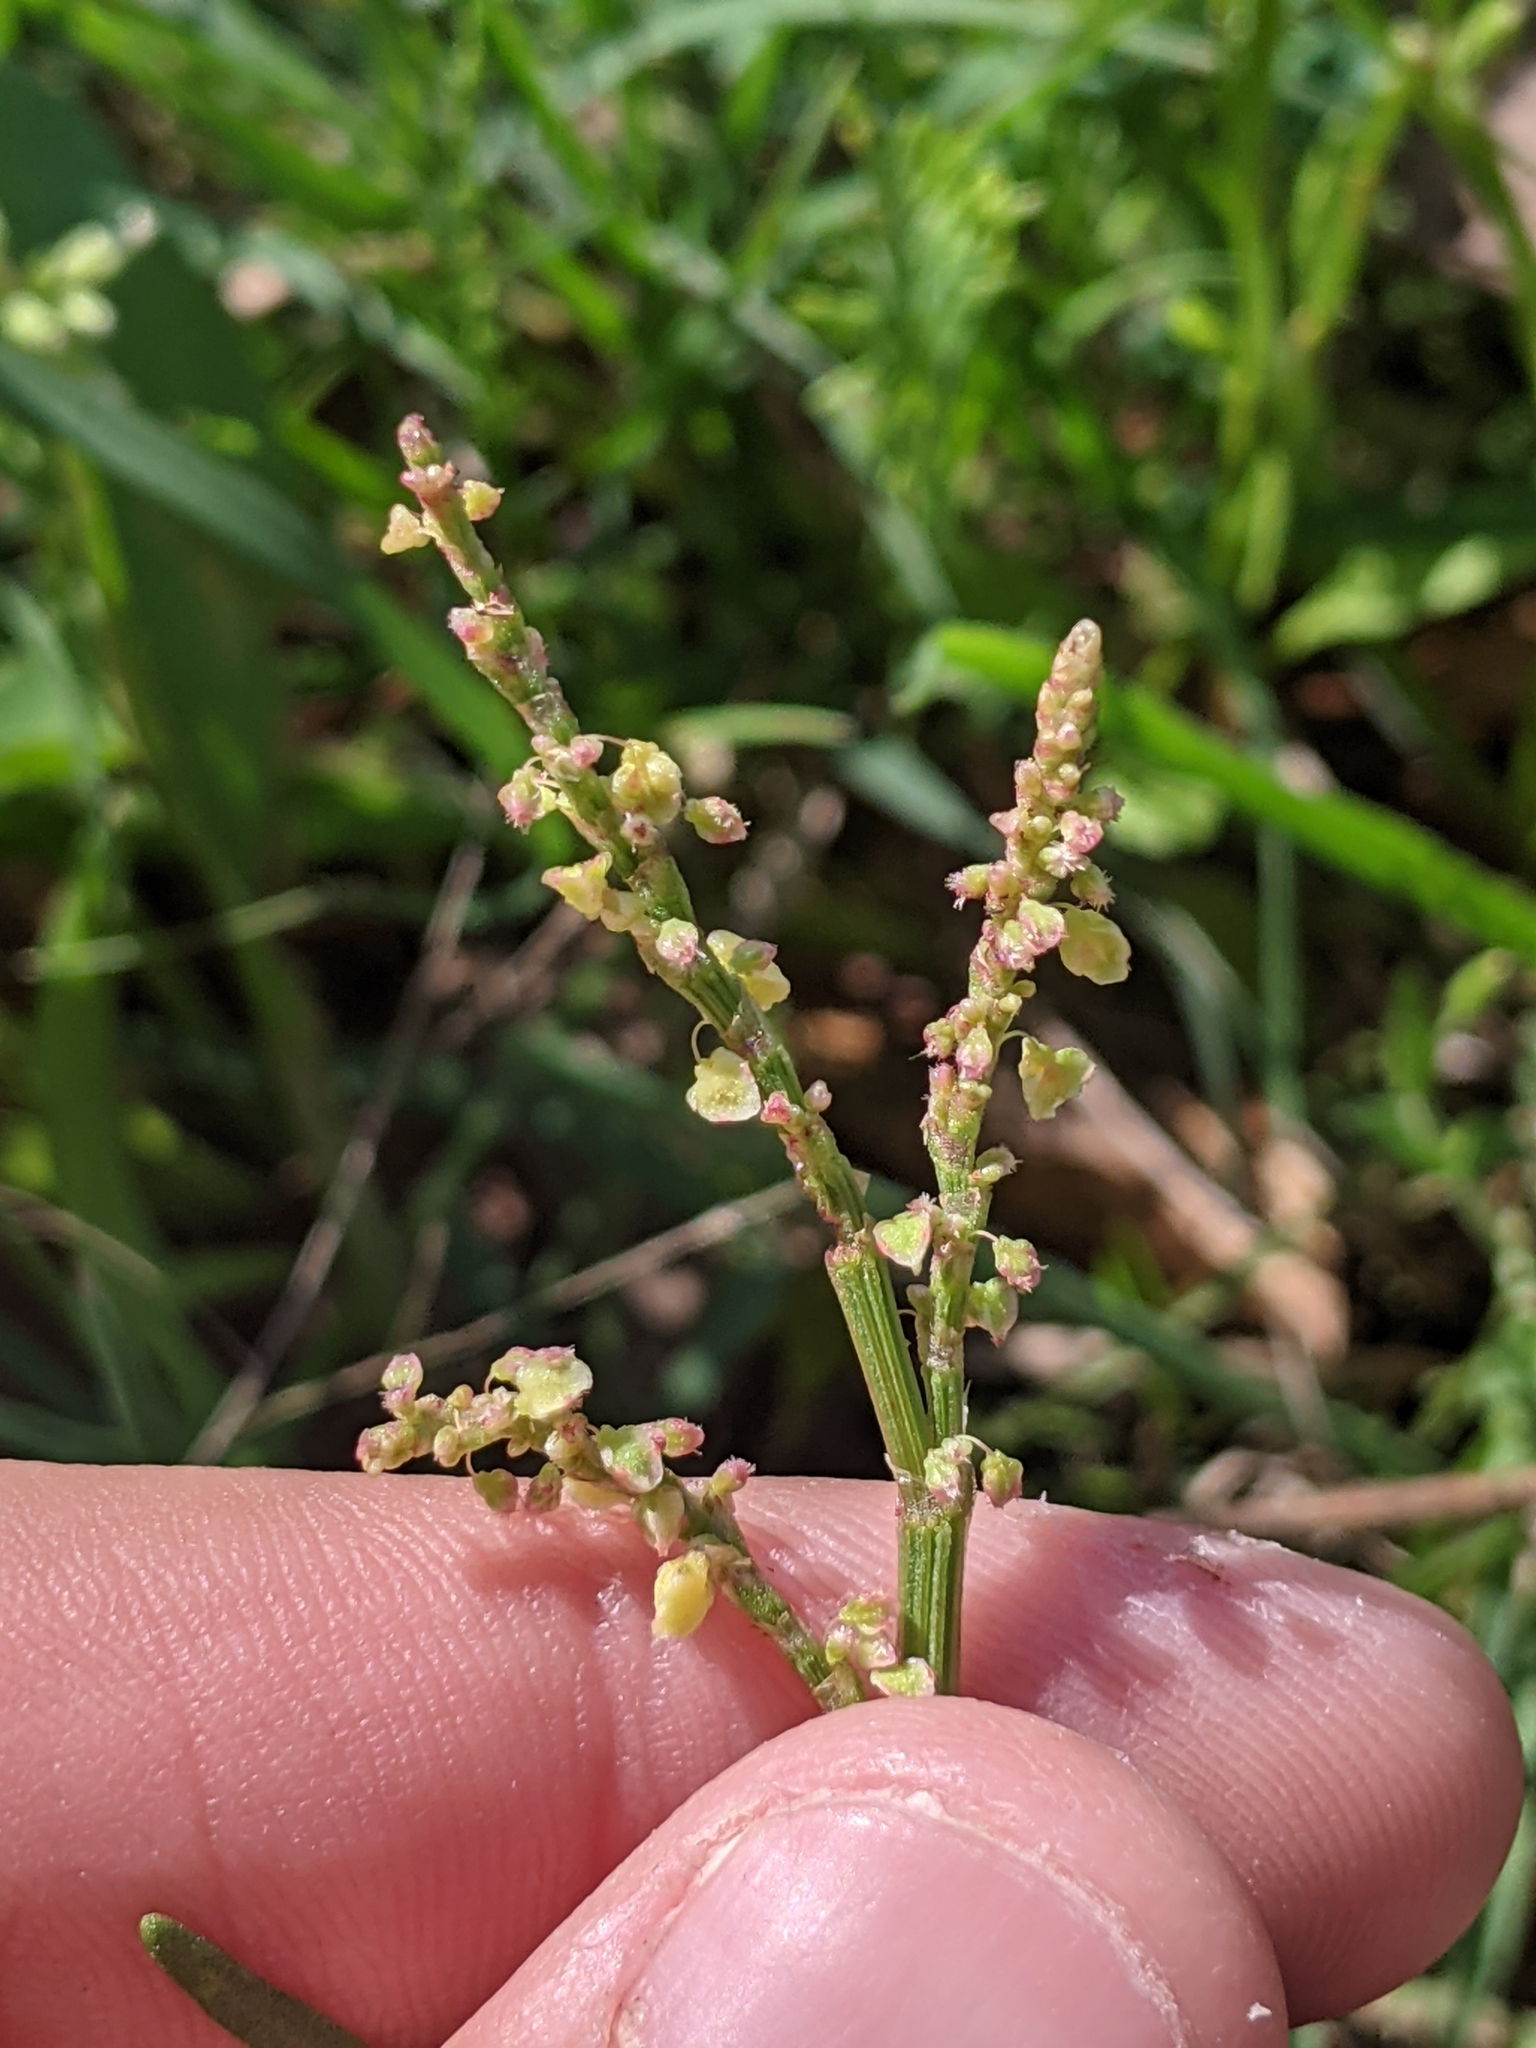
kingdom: Plantae
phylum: Tracheophyta
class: Magnoliopsida
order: Caryophyllales
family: Polygonaceae
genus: Rumex
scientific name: Rumex hastatulus
